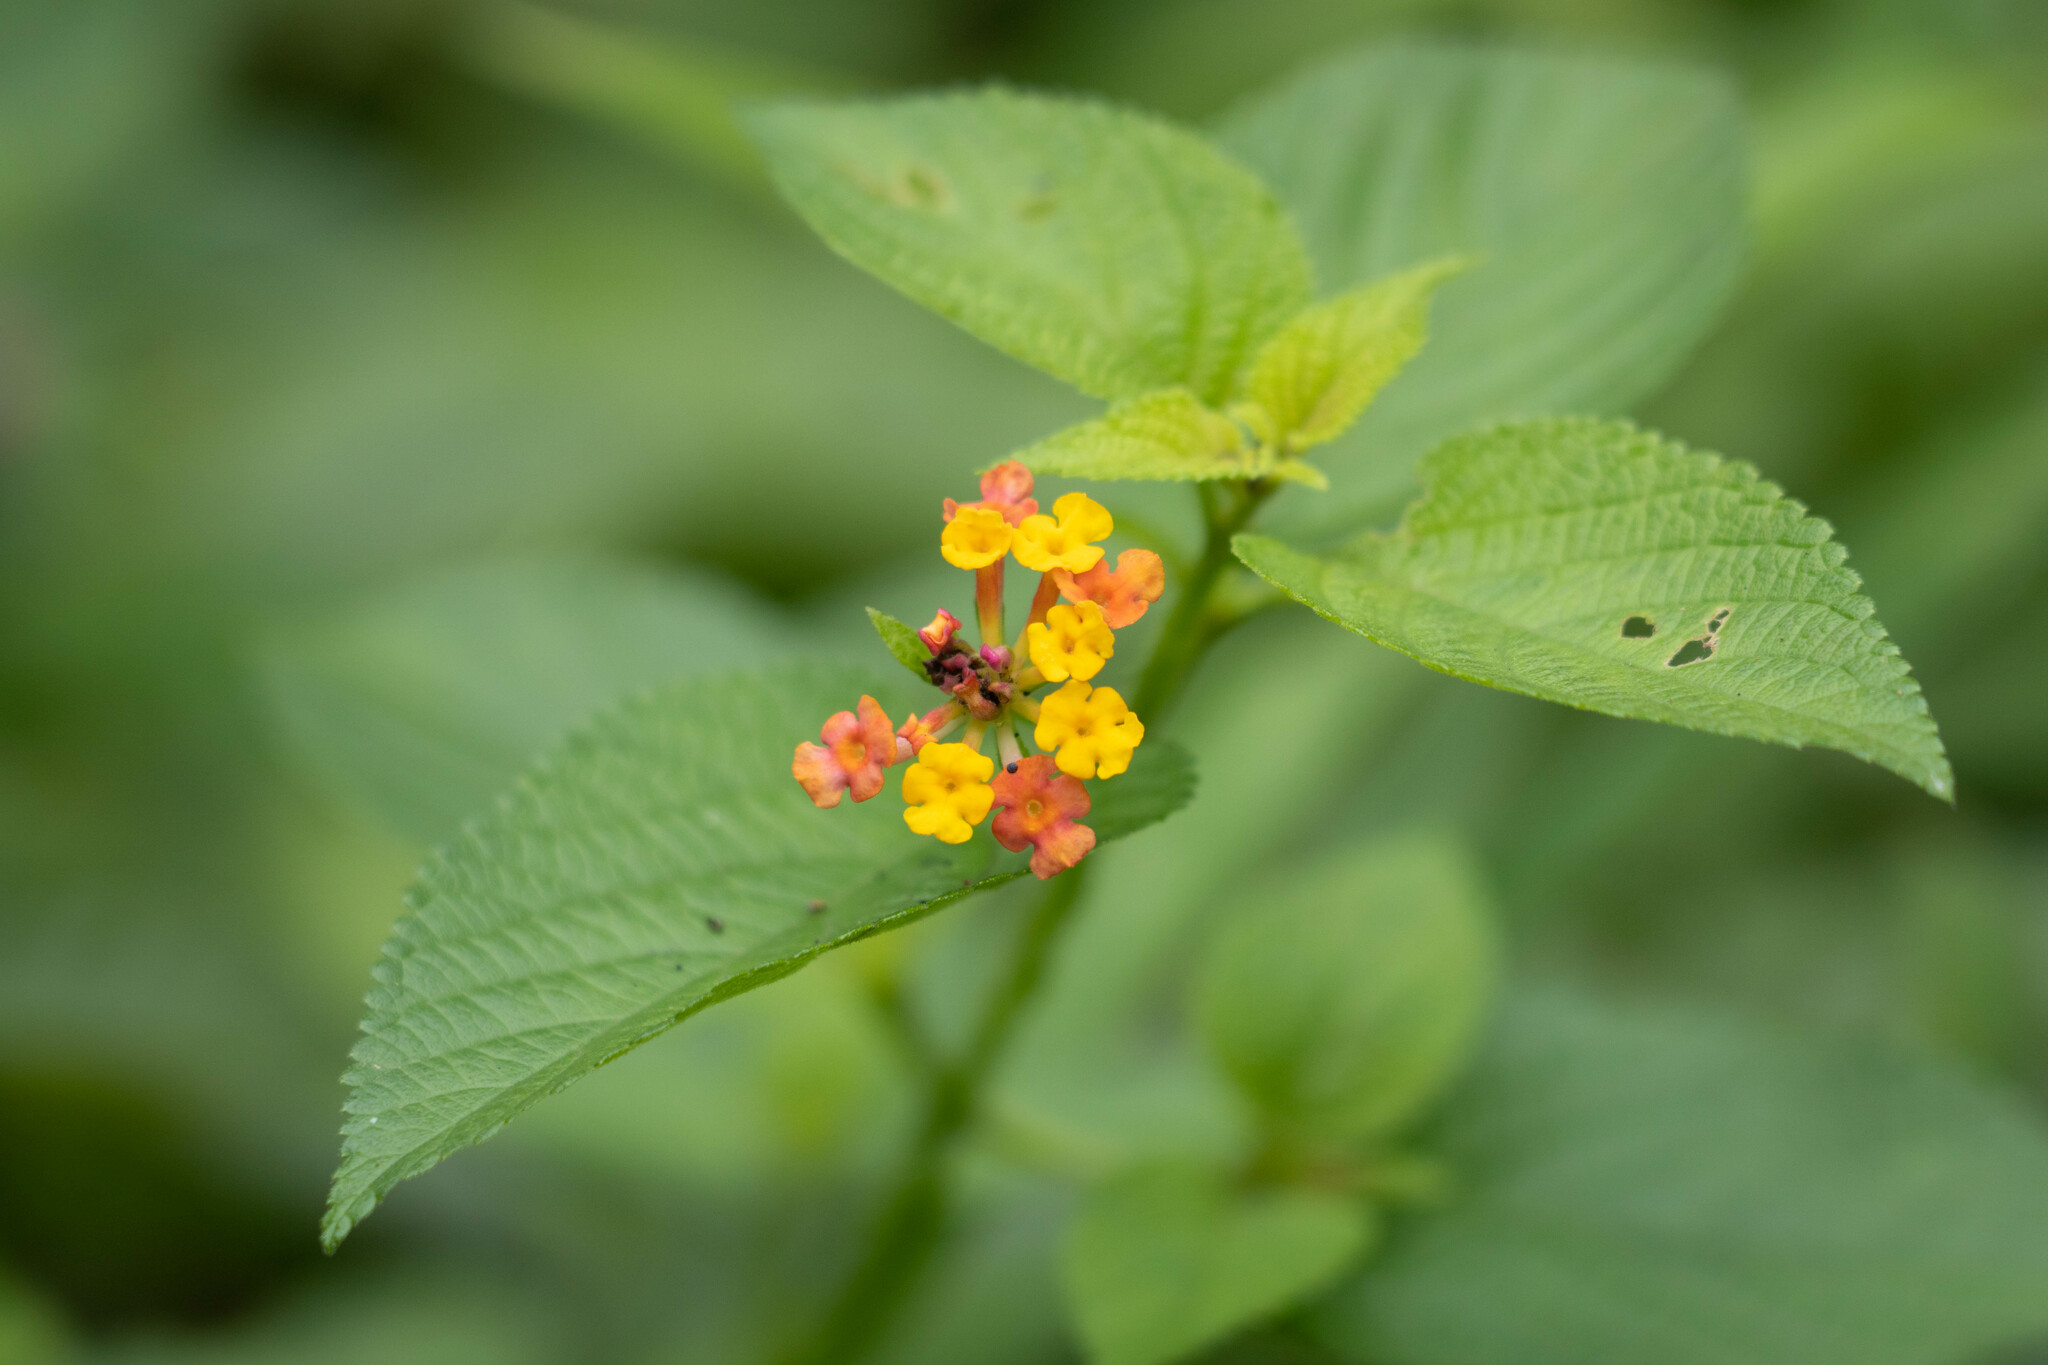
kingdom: Plantae
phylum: Tracheophyta
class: Magnoliopsida
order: Lamiales
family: Verbenaceae
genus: Lantana
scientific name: Lantana camara
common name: Lantana
